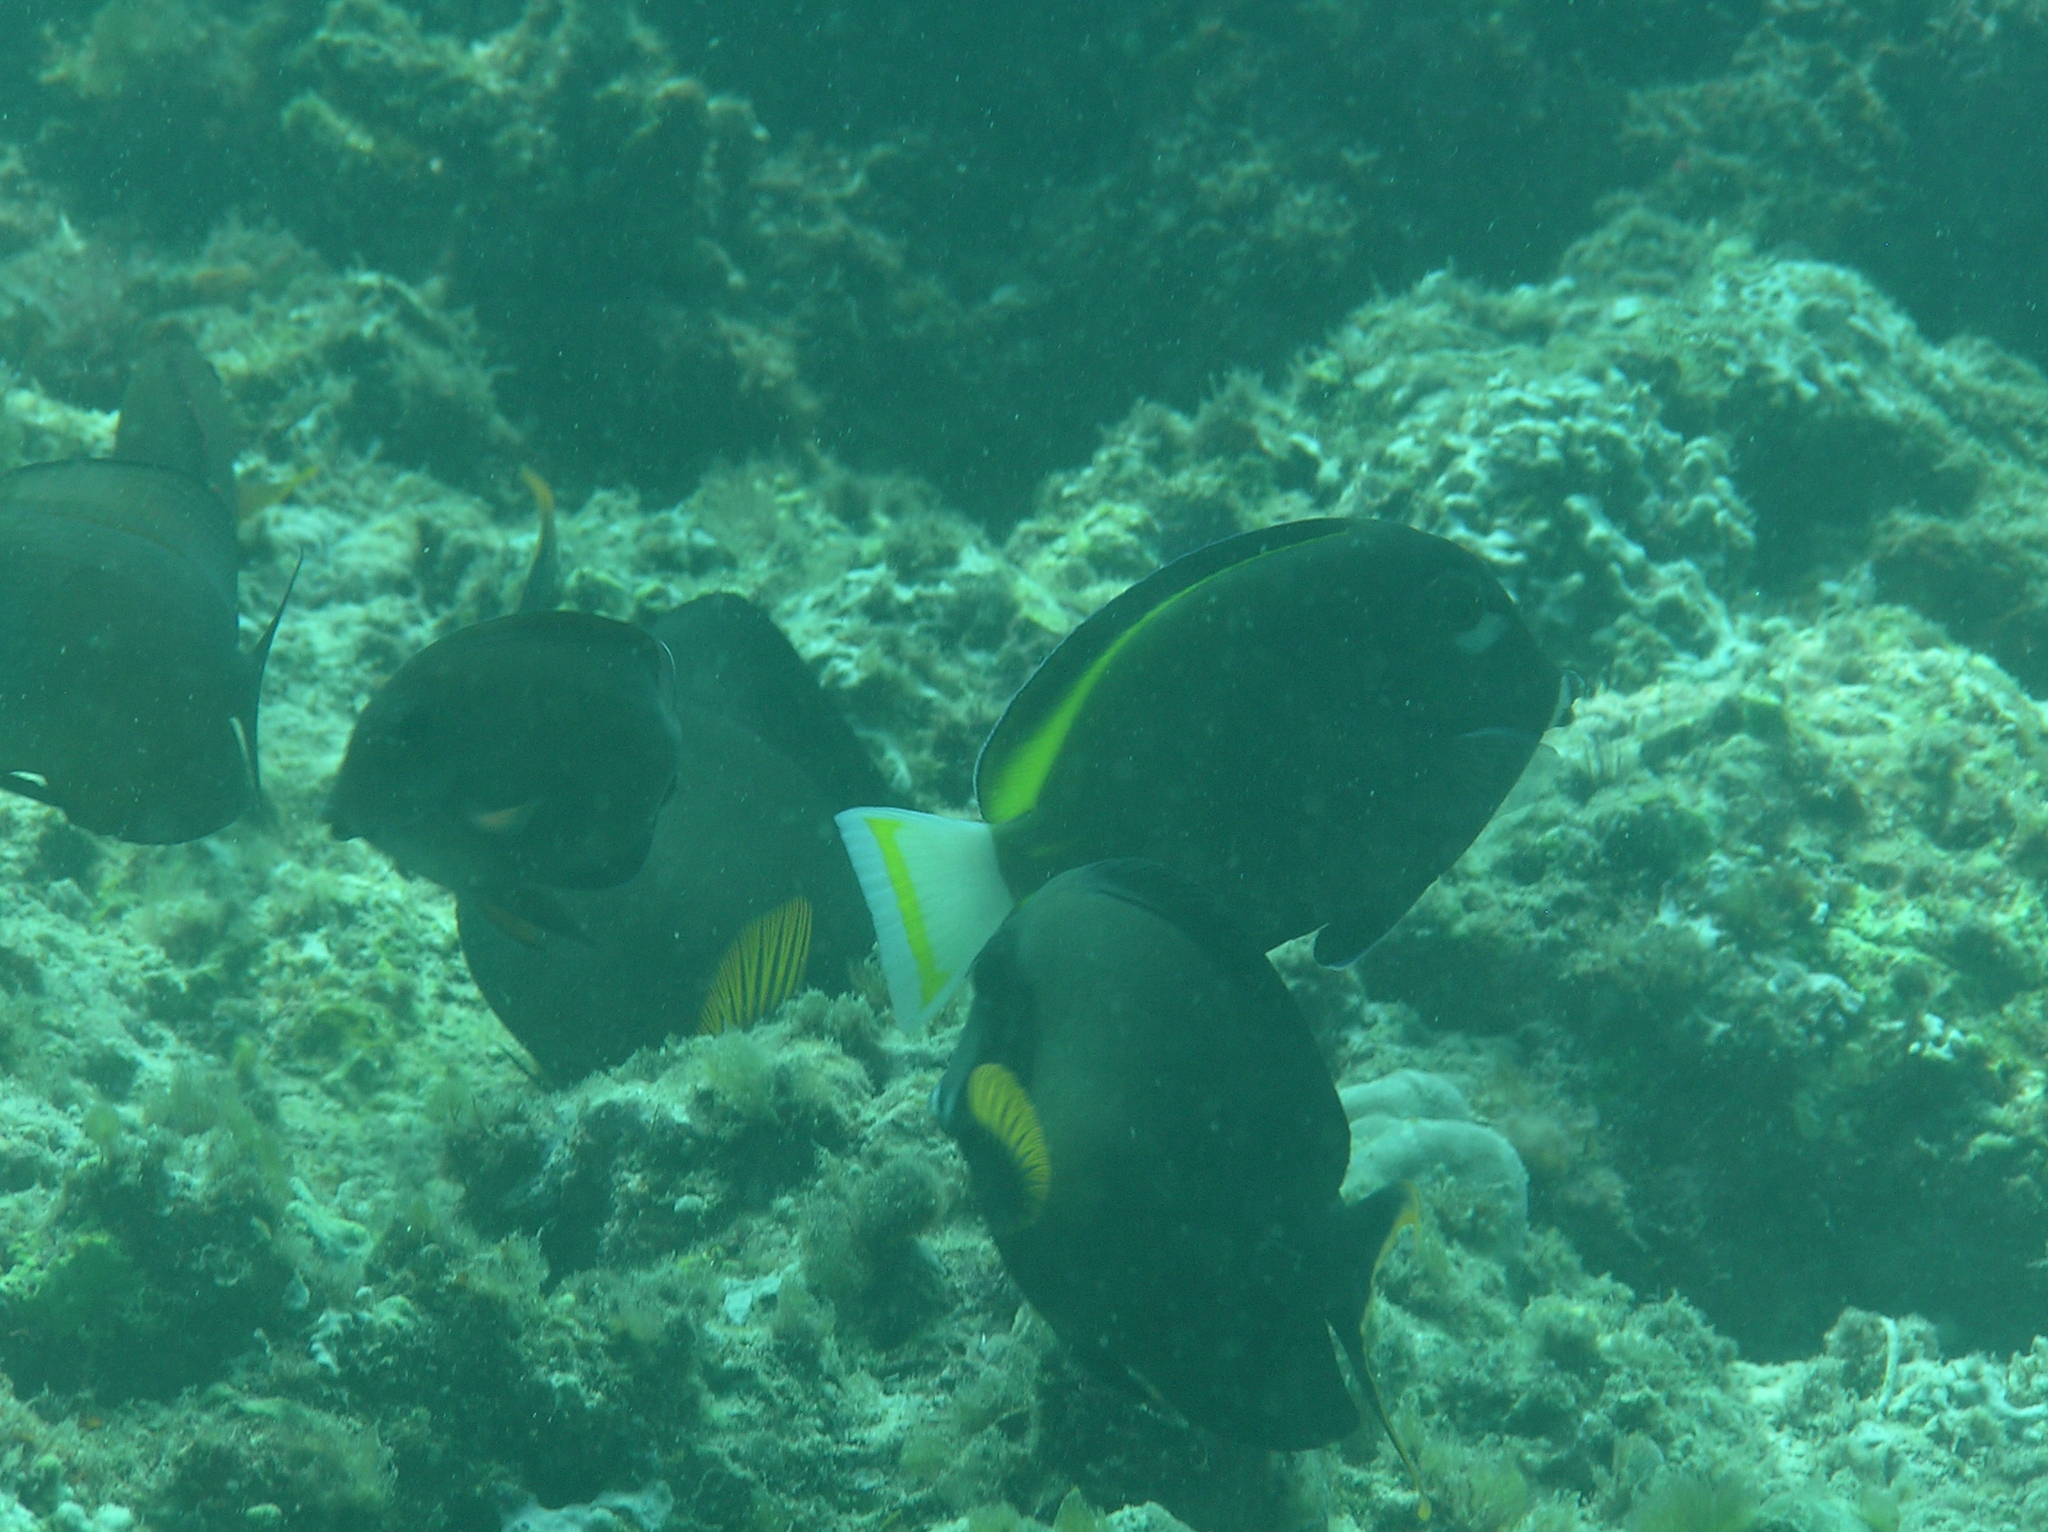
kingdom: Animalia
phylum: Chordata
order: Perciformes
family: Acanthuridae
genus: Acanthurus
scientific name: Acanthurus nigricans
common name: Whitecheek surgeonfish
